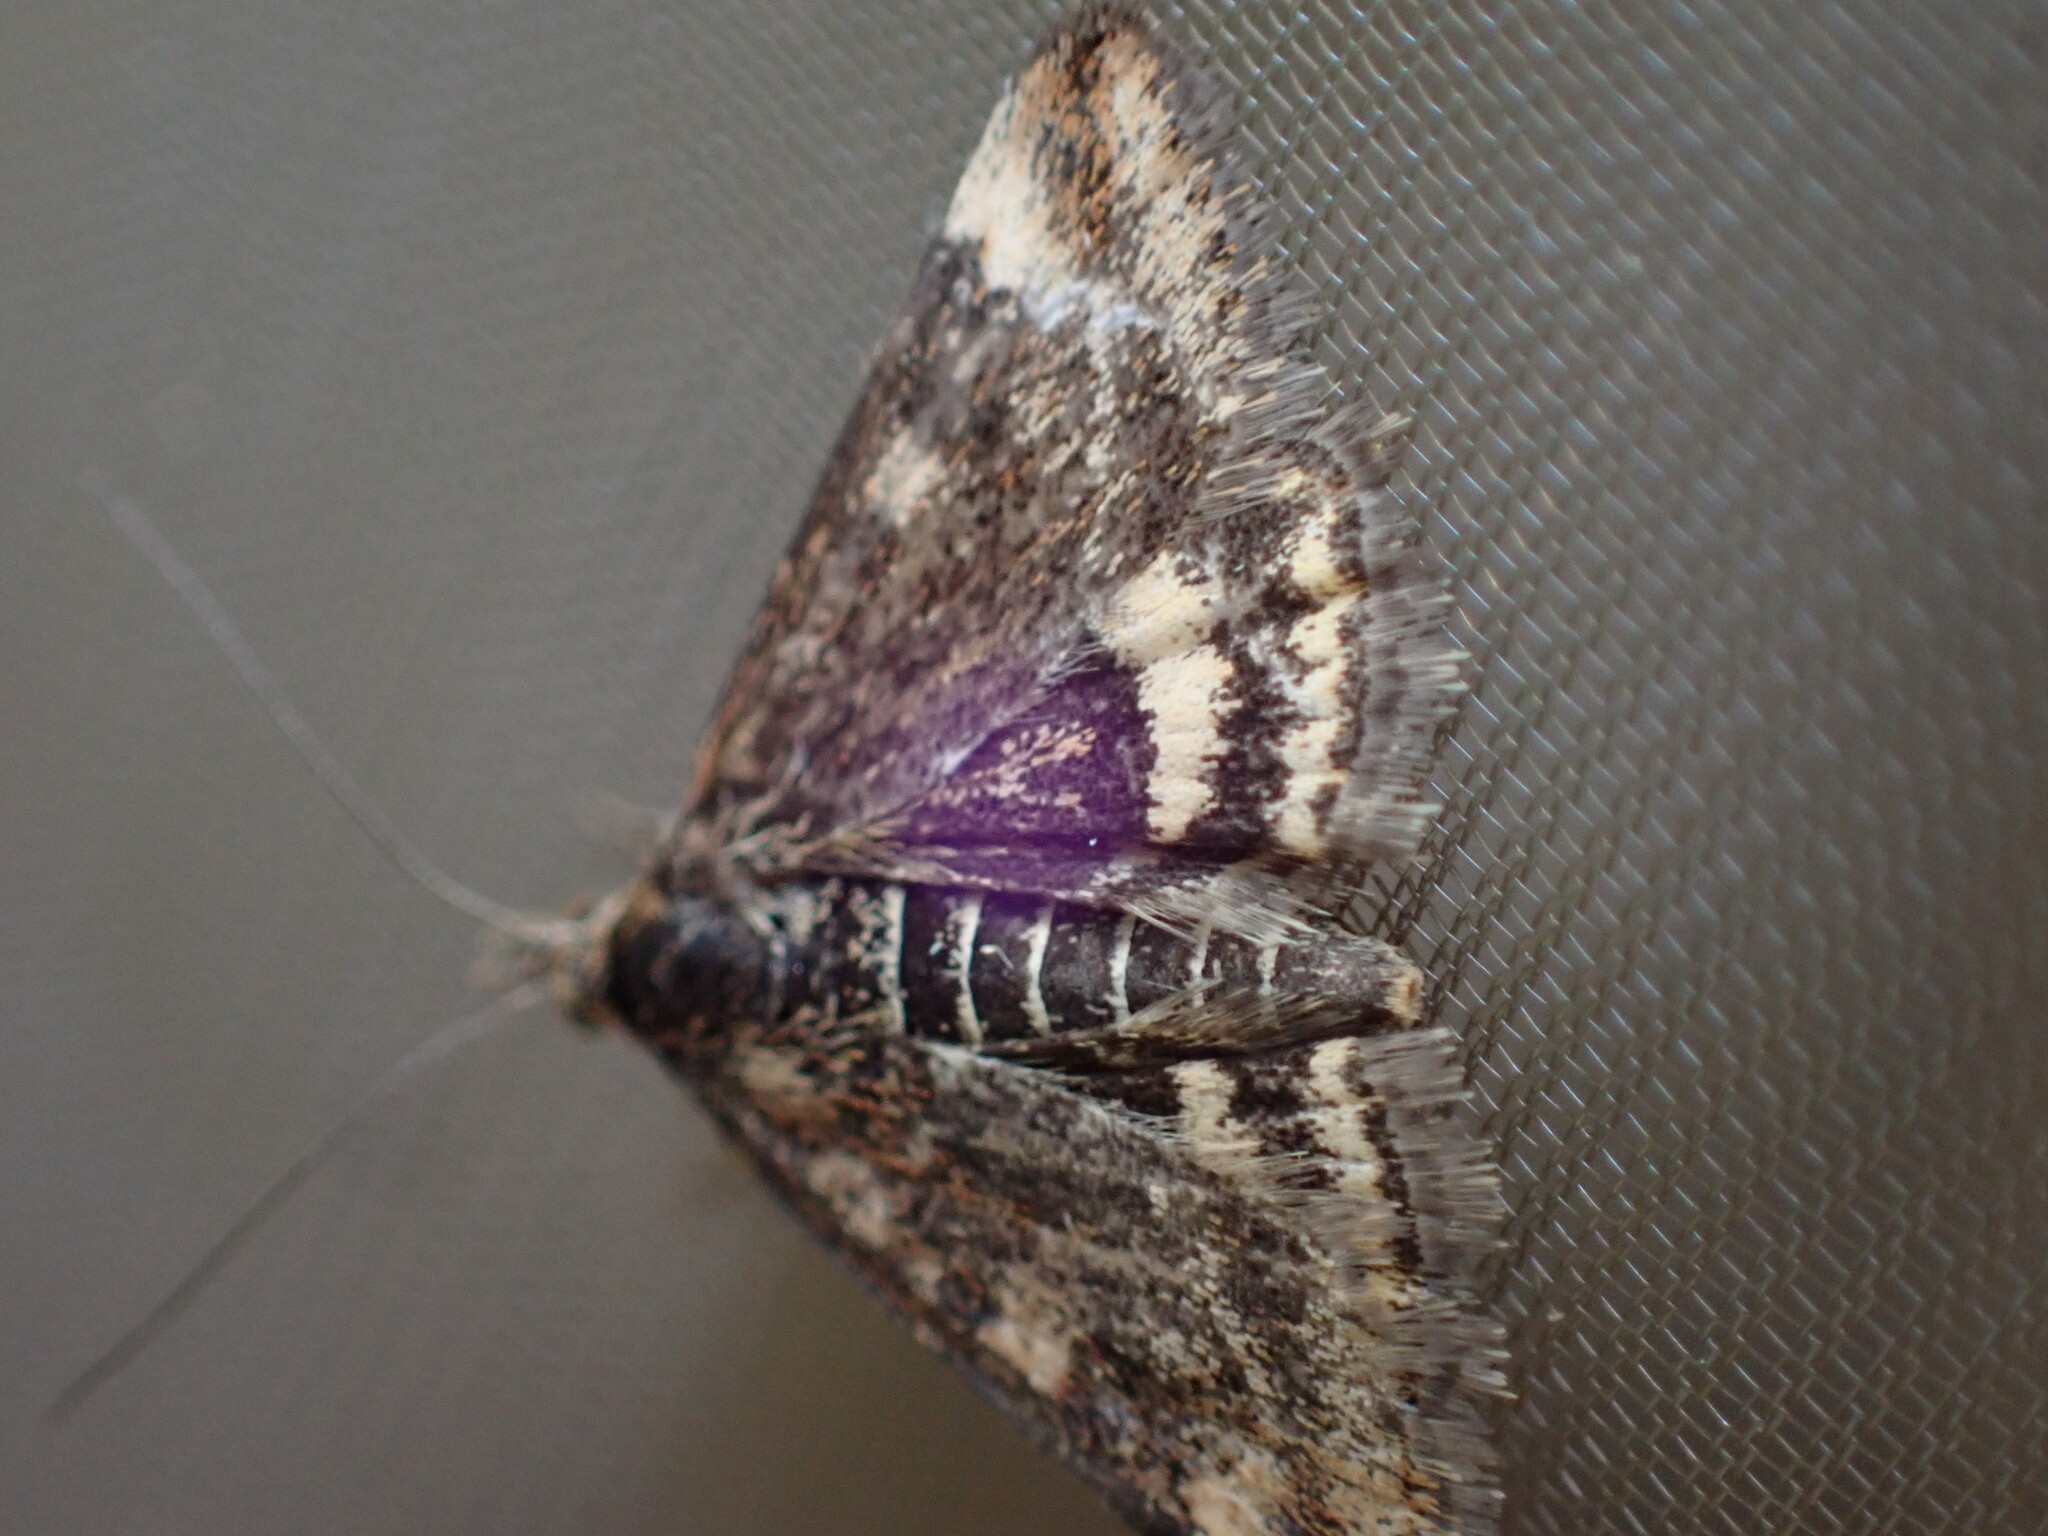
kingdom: Animalia
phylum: Arthropoda
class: Insecta
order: Lepidoptera
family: Crambidae
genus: Pyrausta
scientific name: Pyrausta despicata
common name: Straw-barred pearl
